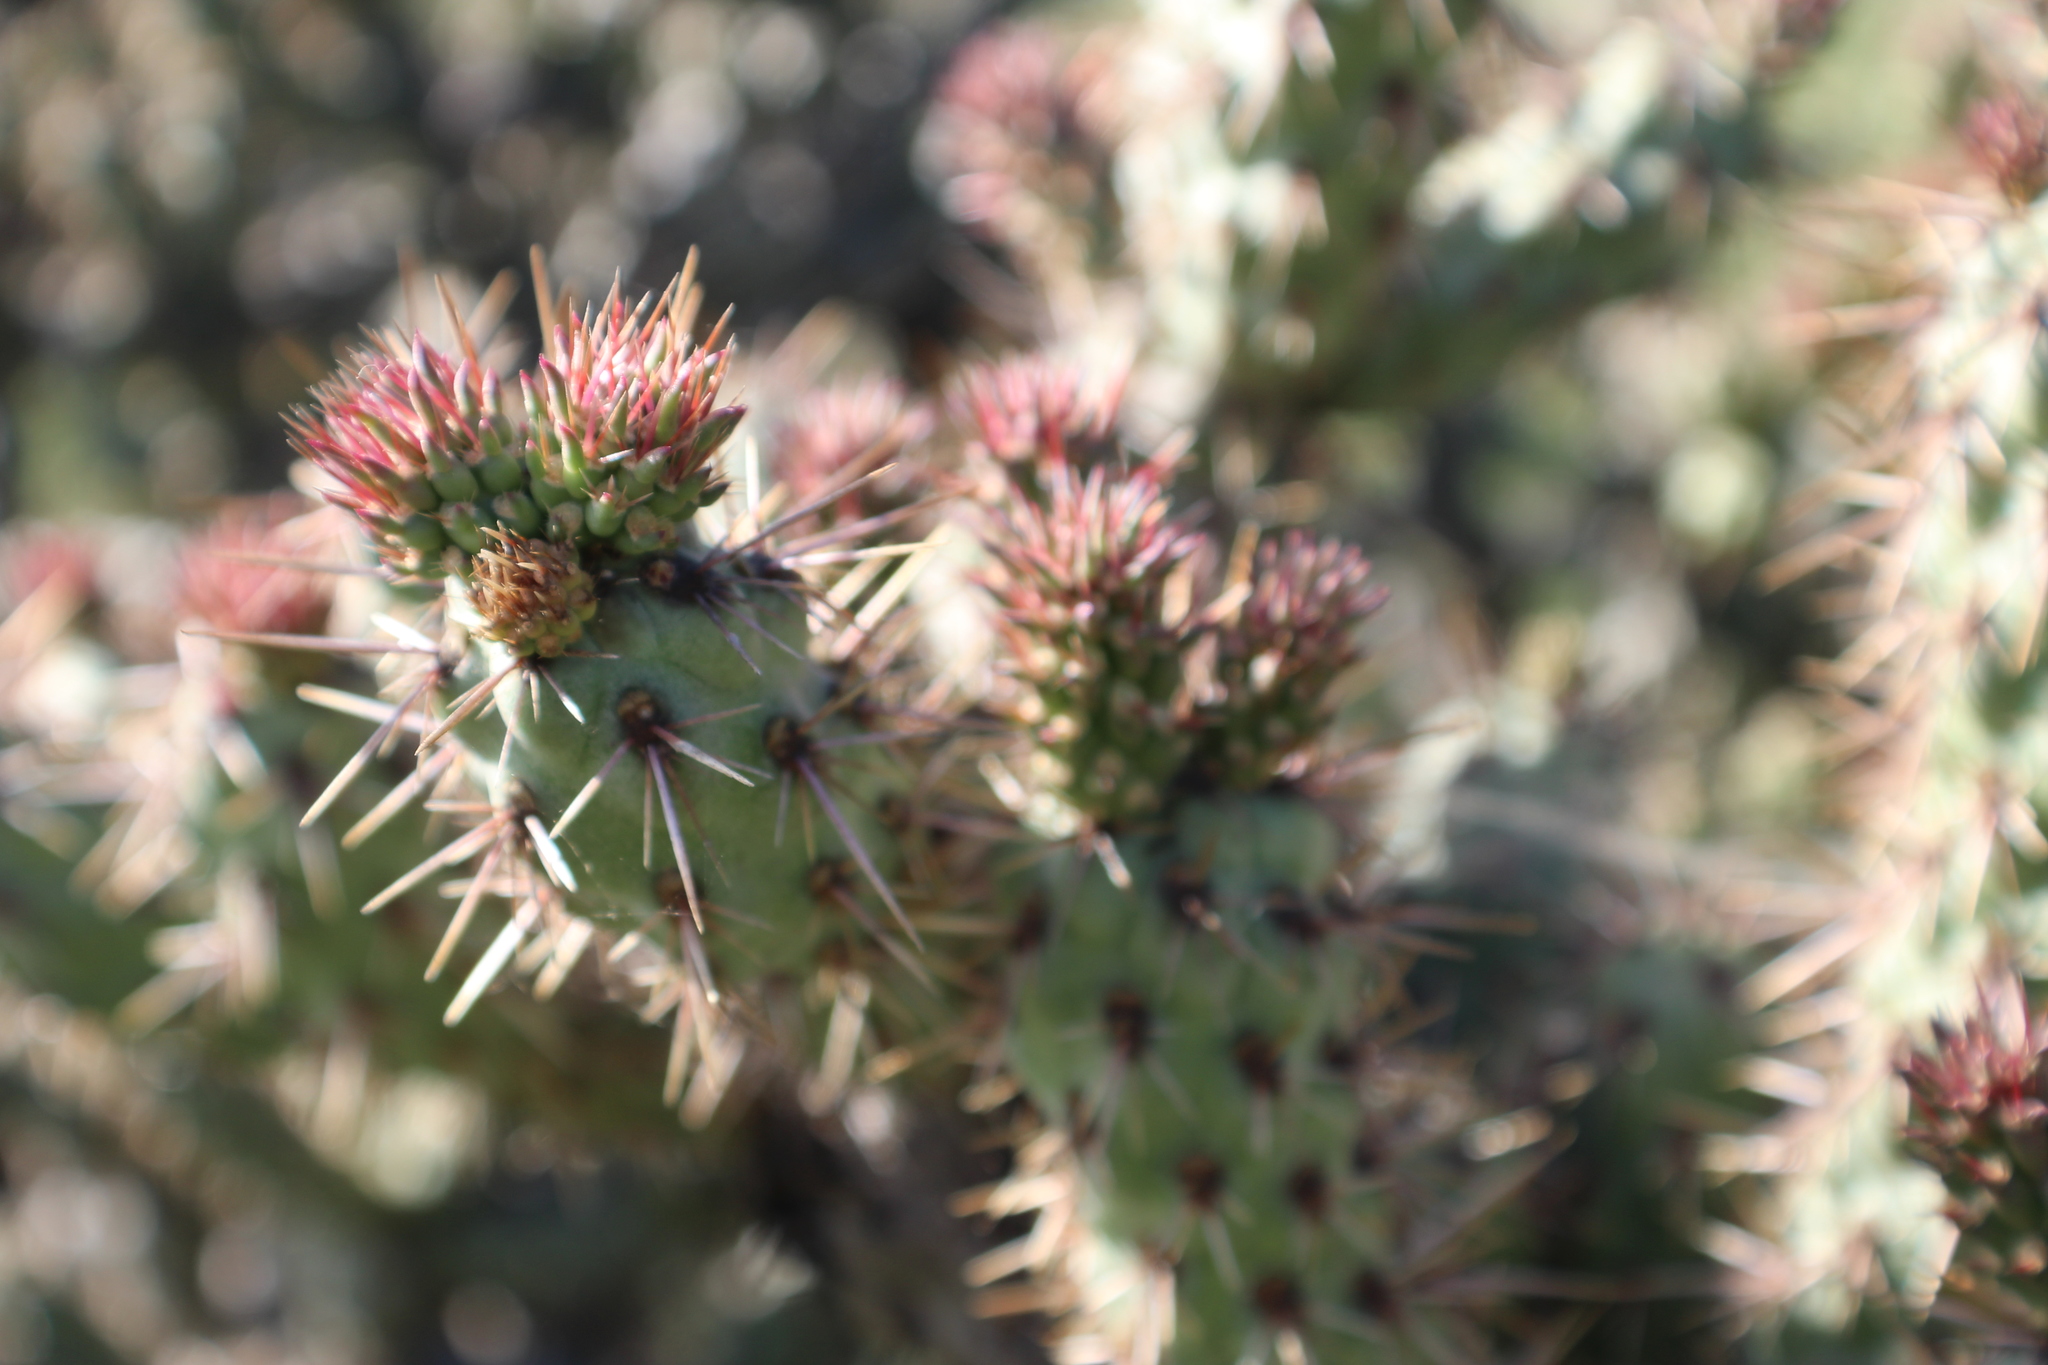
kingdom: Plantae
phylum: Tracheophyta
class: Magnoliopsida
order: Caryophyllales
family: Cactaceae
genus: Cylindropuntia
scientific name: Cylindropuntia prolifera
